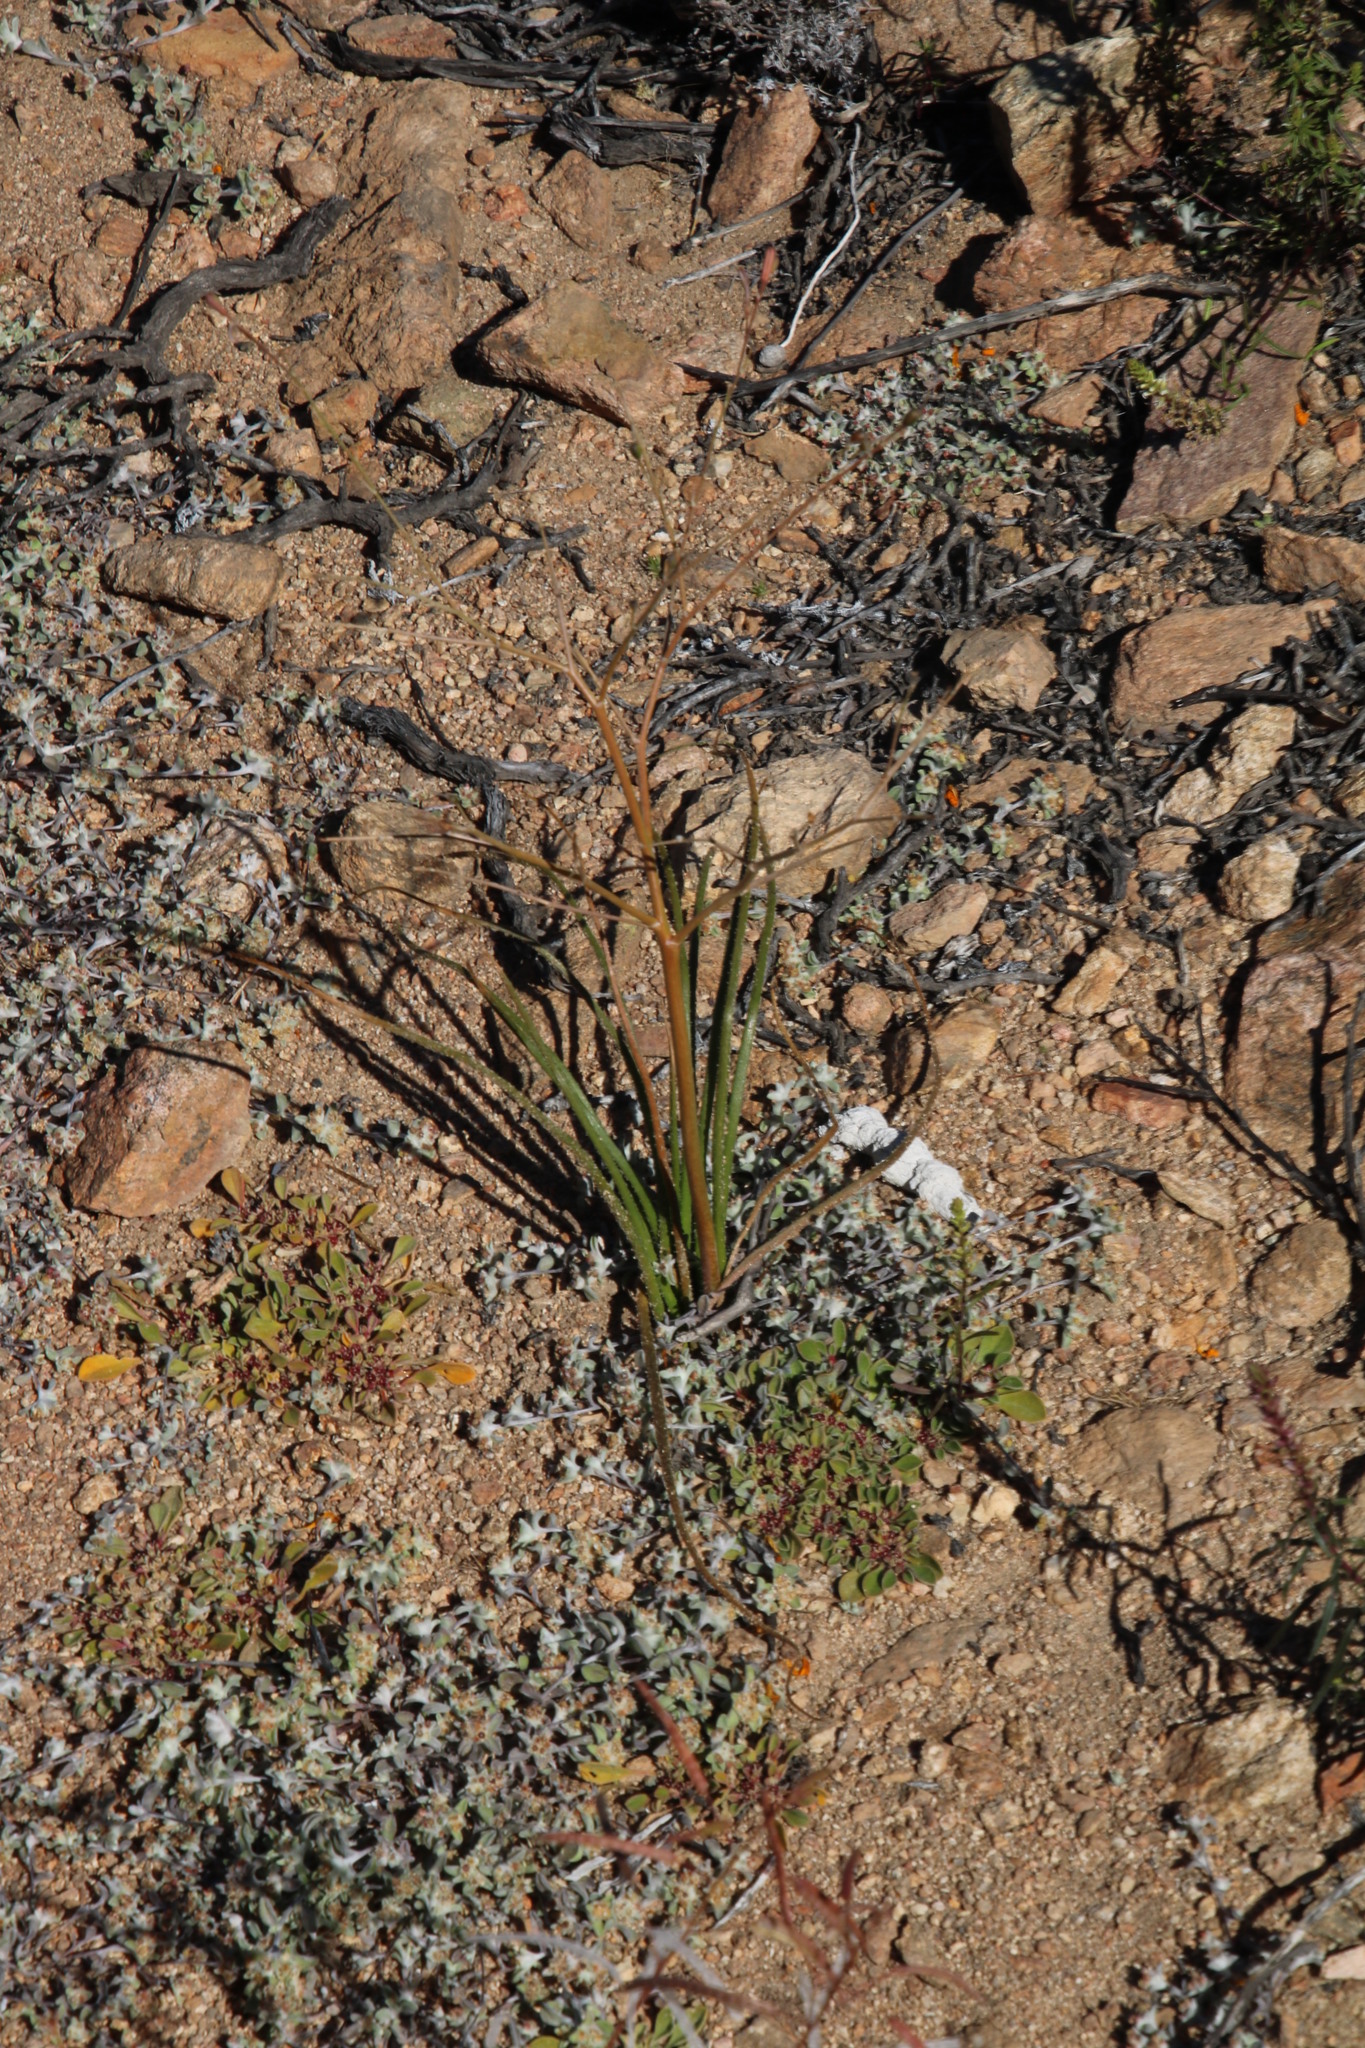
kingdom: Plantae
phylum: Tracheophyta
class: Liliopsida
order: Asparagales
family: Asphodelaceae
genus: Trachyandra
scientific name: Trachyandra bulbinifolia
